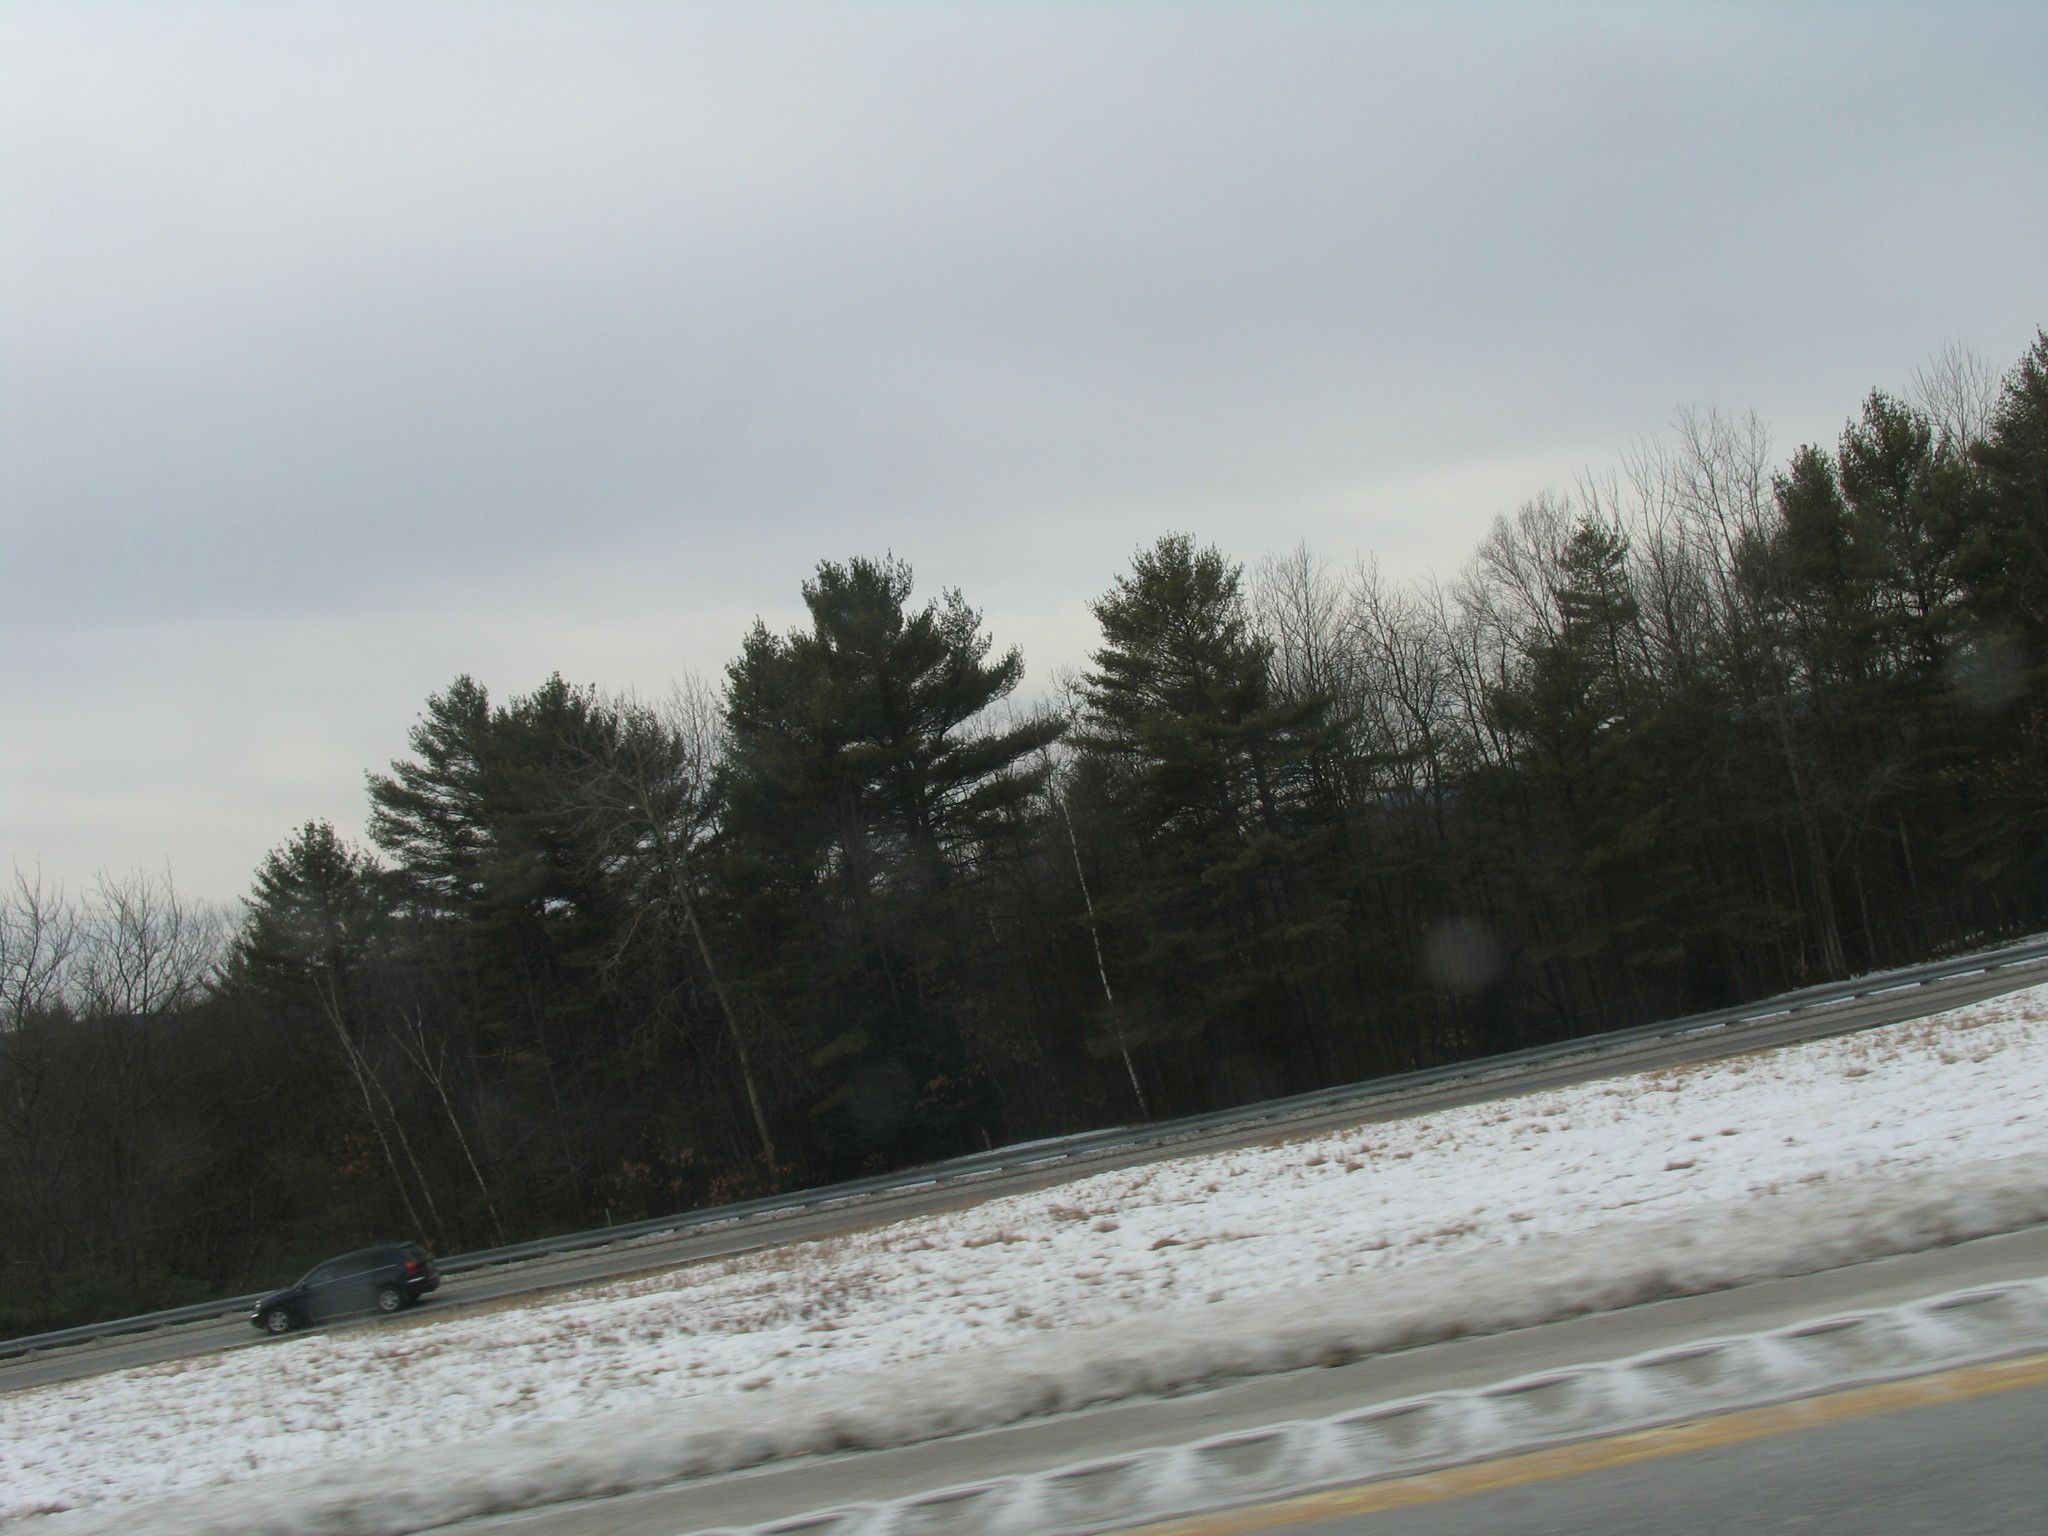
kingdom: Plantae
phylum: Tracheophyta
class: Pinopsida
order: Pinales
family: Pinaceae
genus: Pinus
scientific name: Pinus strobus
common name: Weymouth pine
